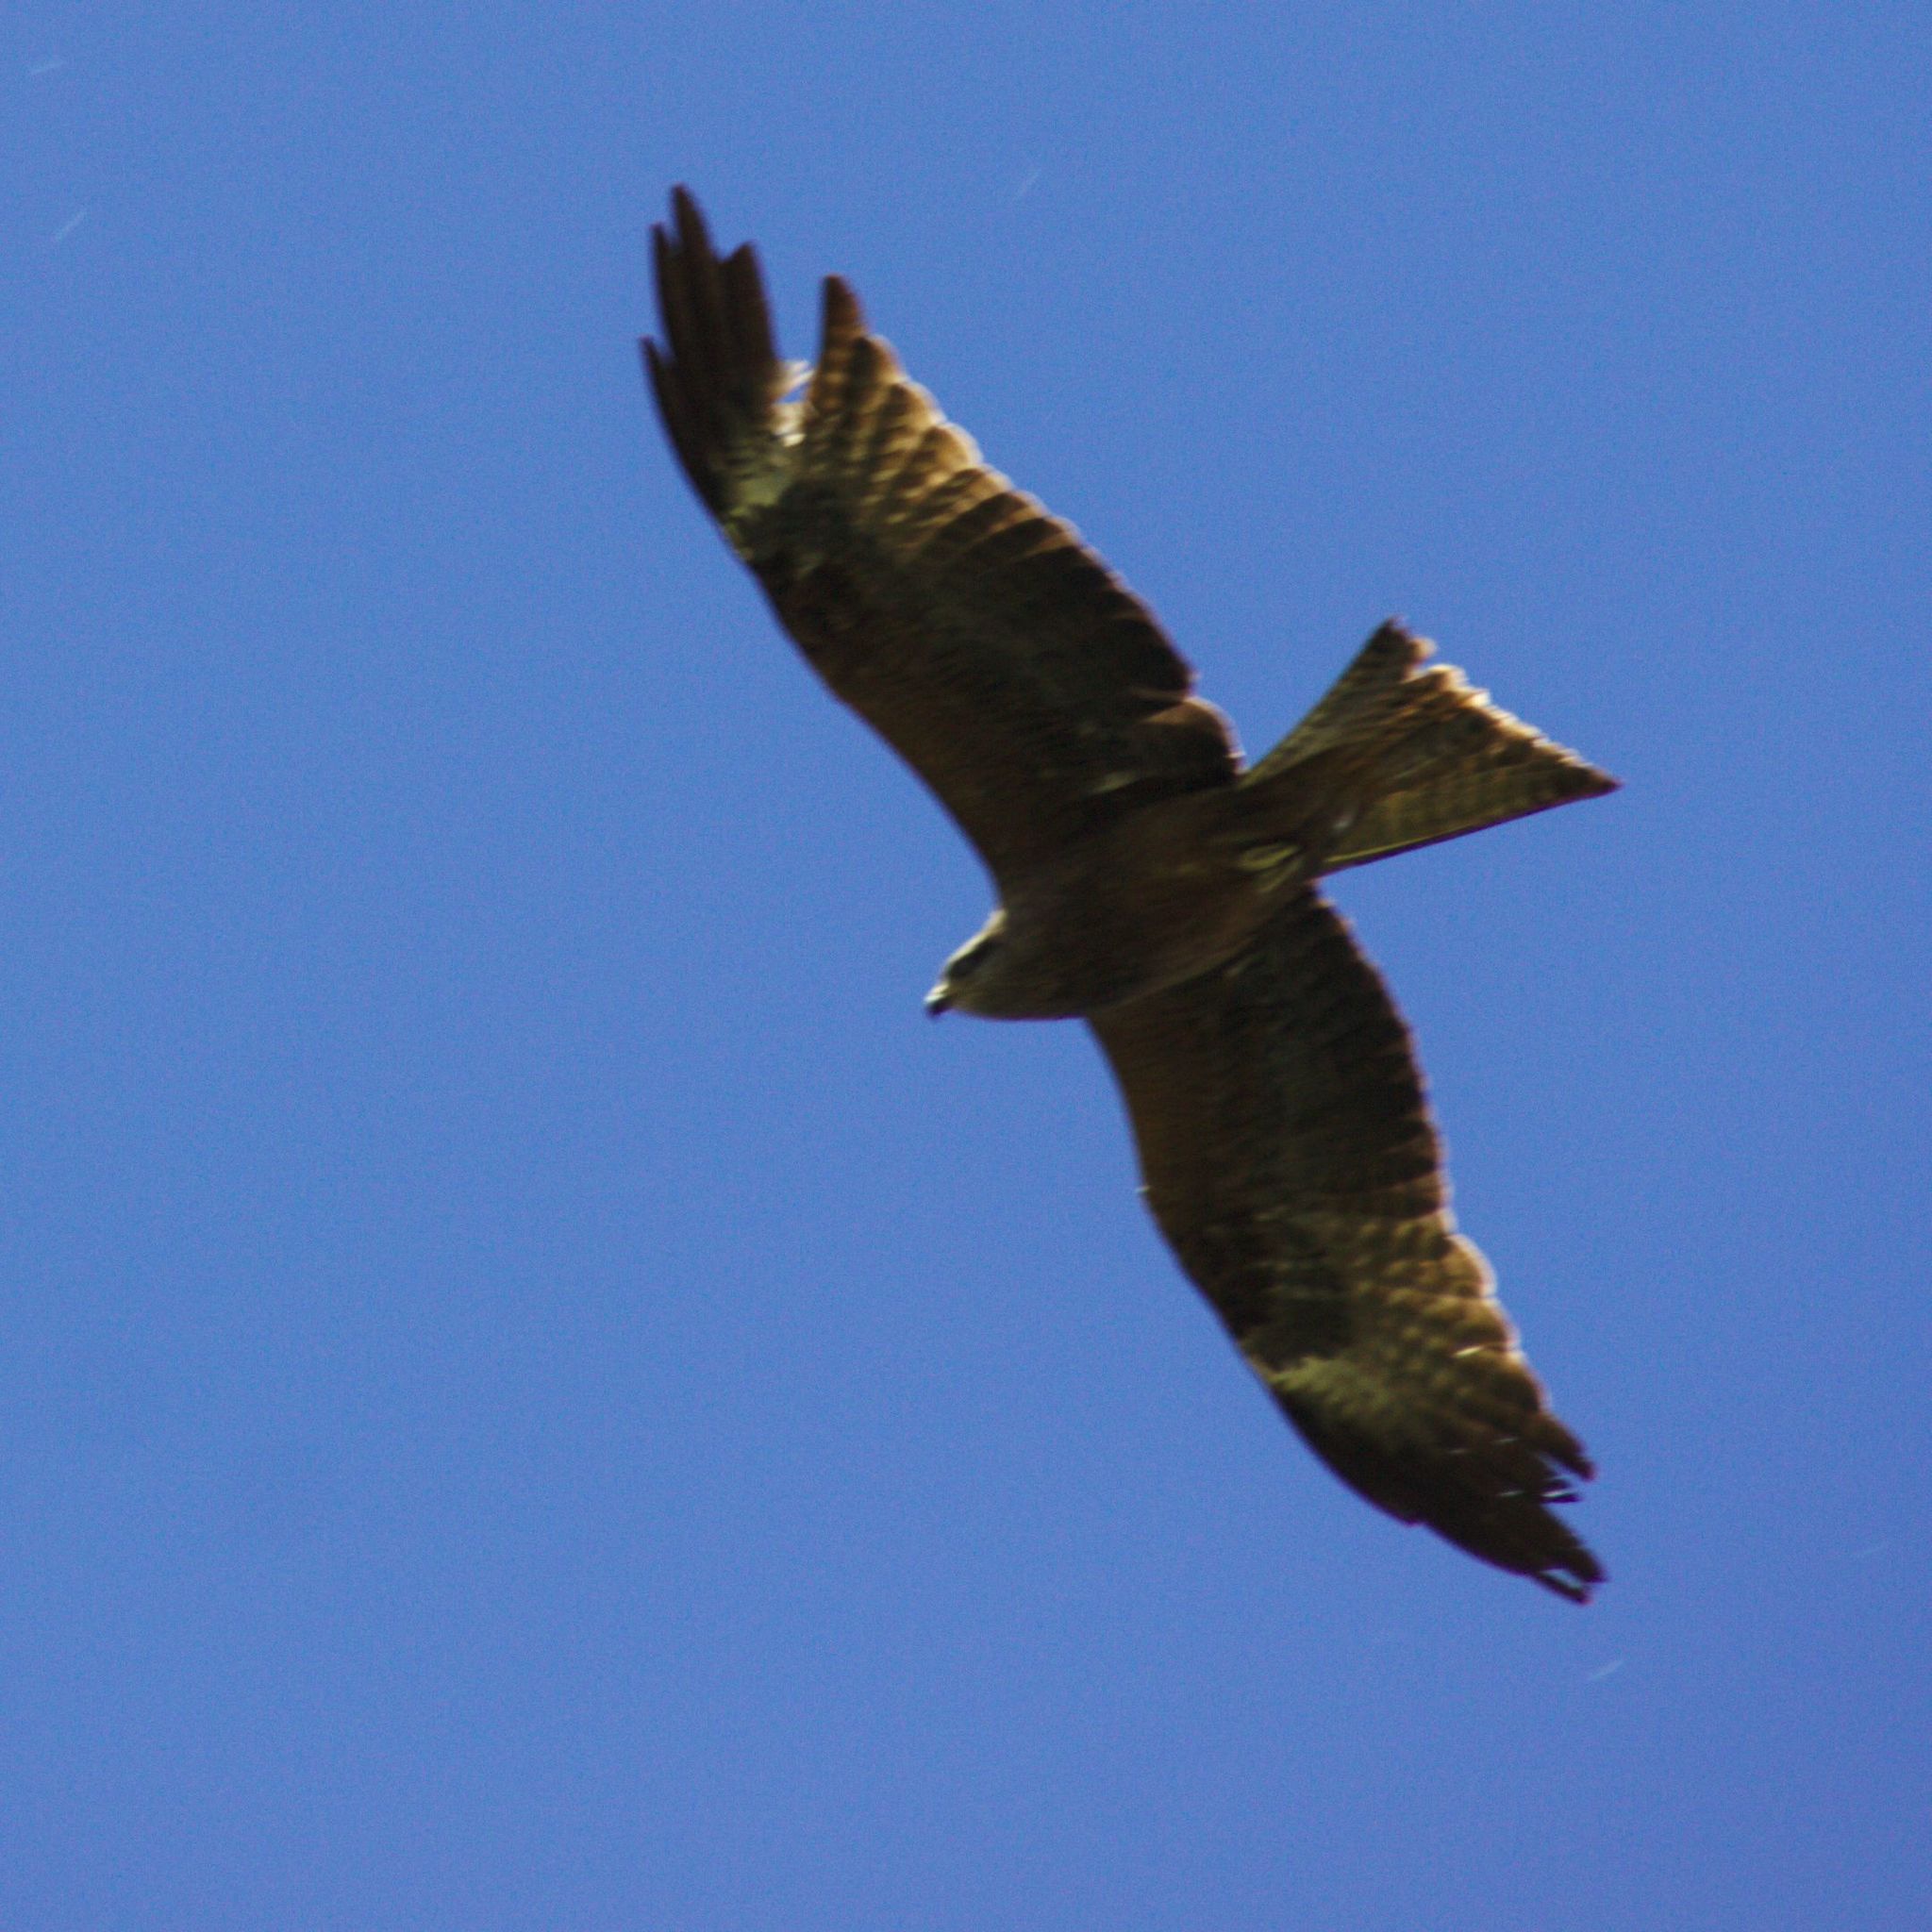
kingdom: Animalia
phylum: Chordata
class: Aves
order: Accipitriformes
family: Accipitridae
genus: Milvus
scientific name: Milvus migrans
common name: Black kite
